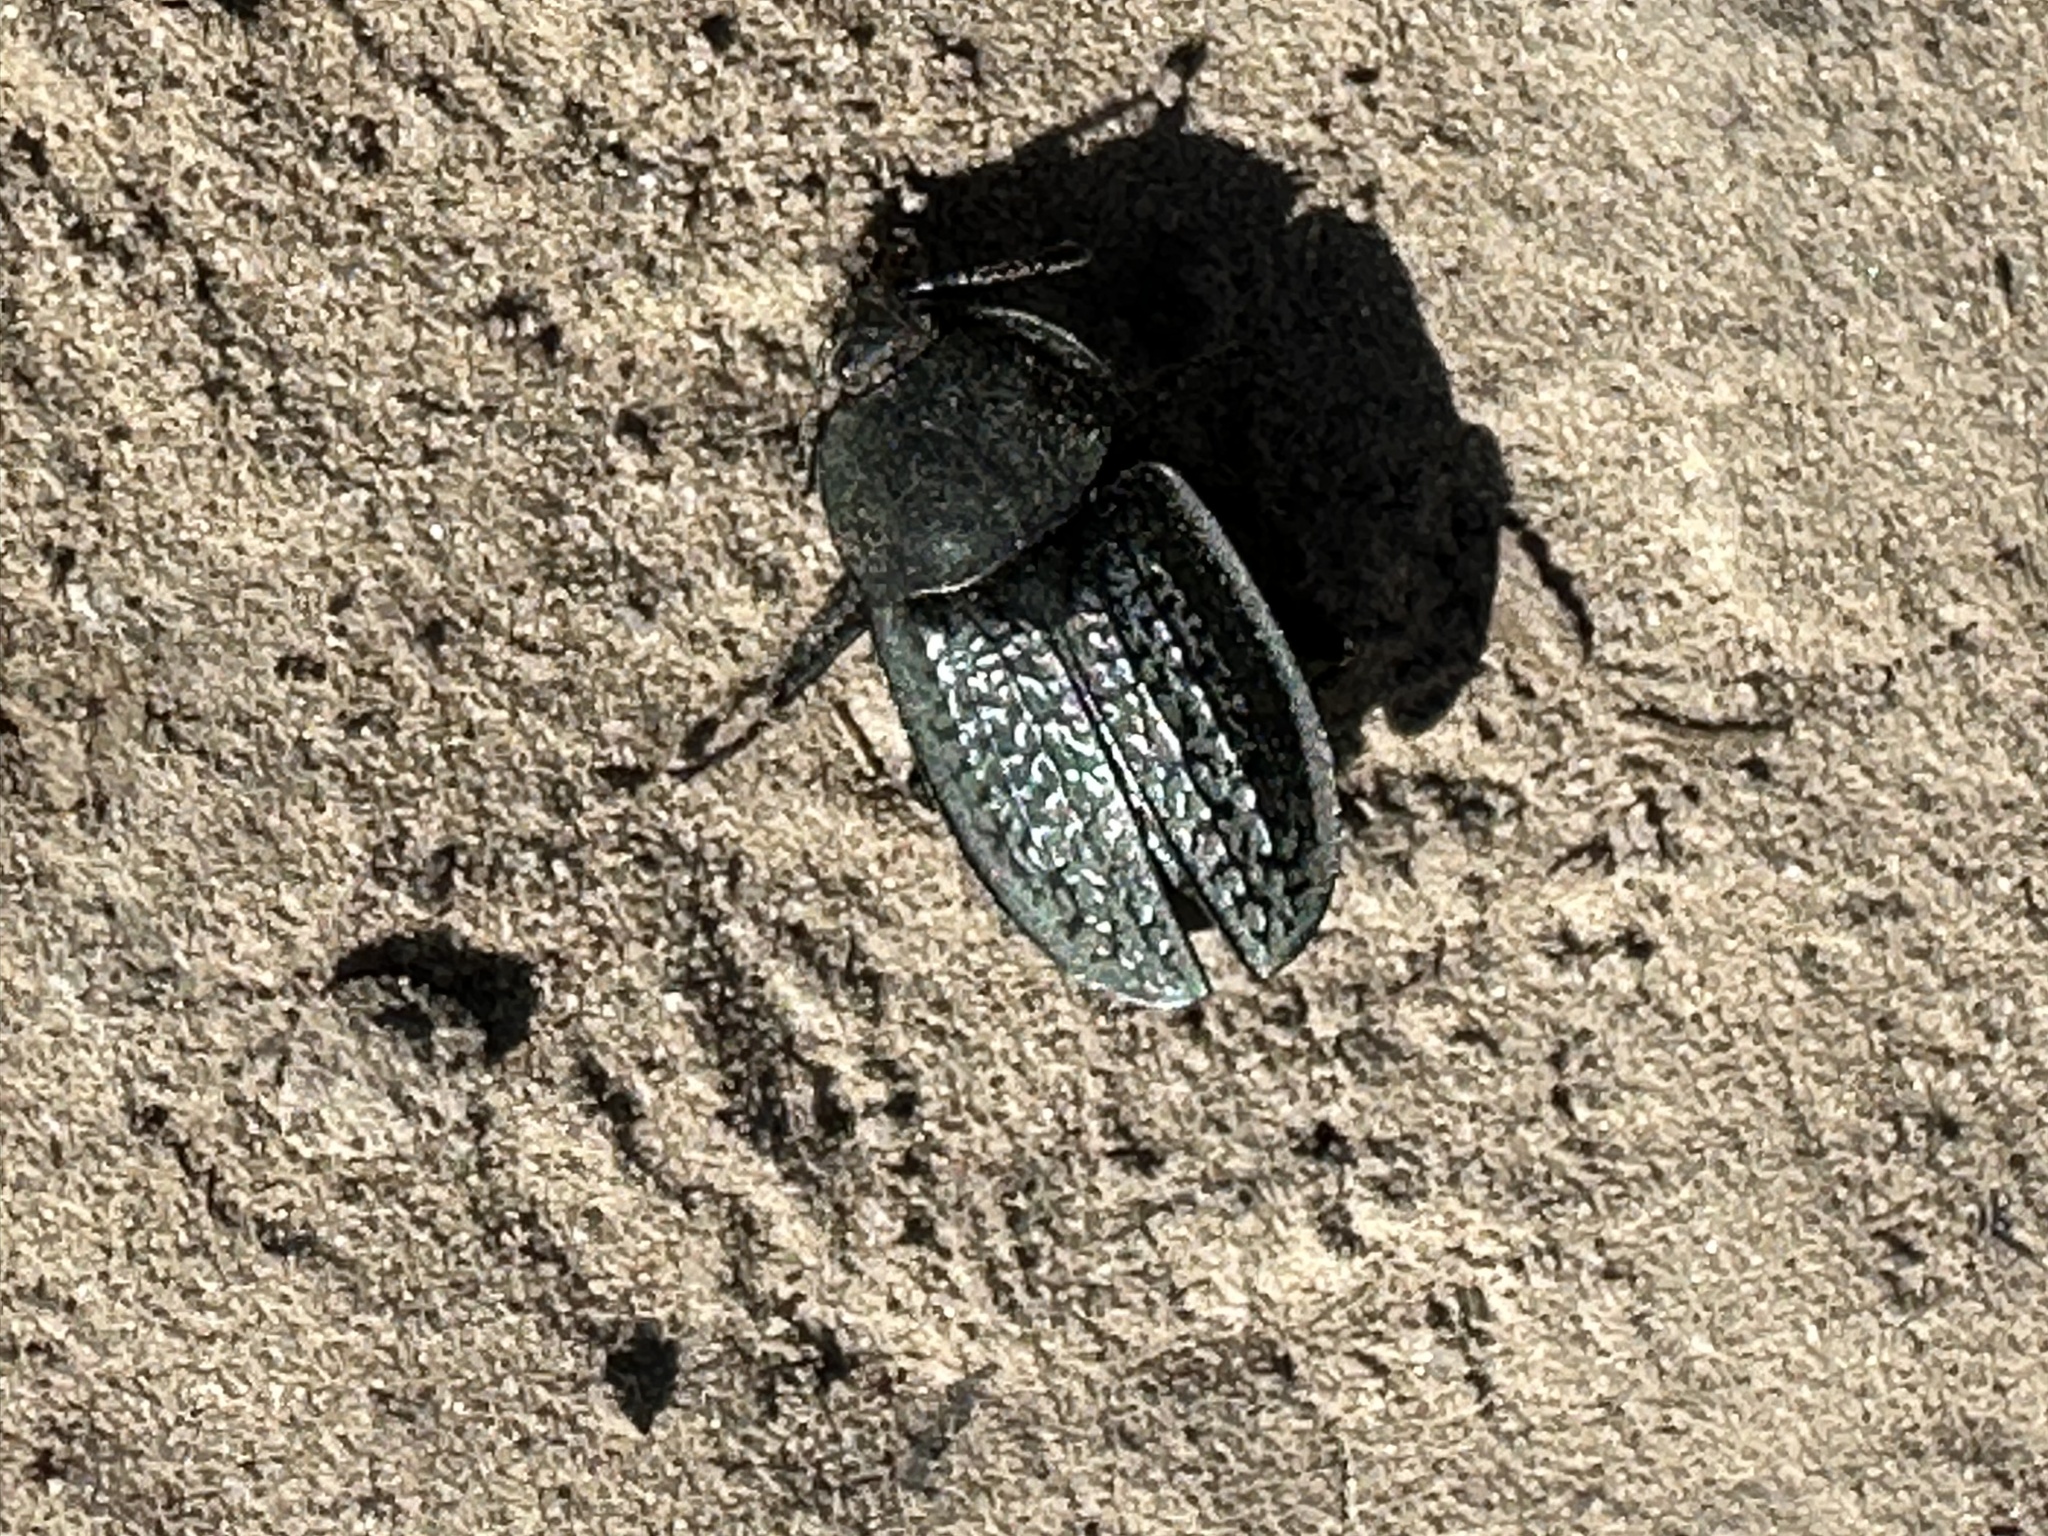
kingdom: Animalia
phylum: Arthropoda
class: Insecta
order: Coleoptera
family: Staphylinidae
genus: Heterosilpha
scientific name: Heterosilpha ramosa
